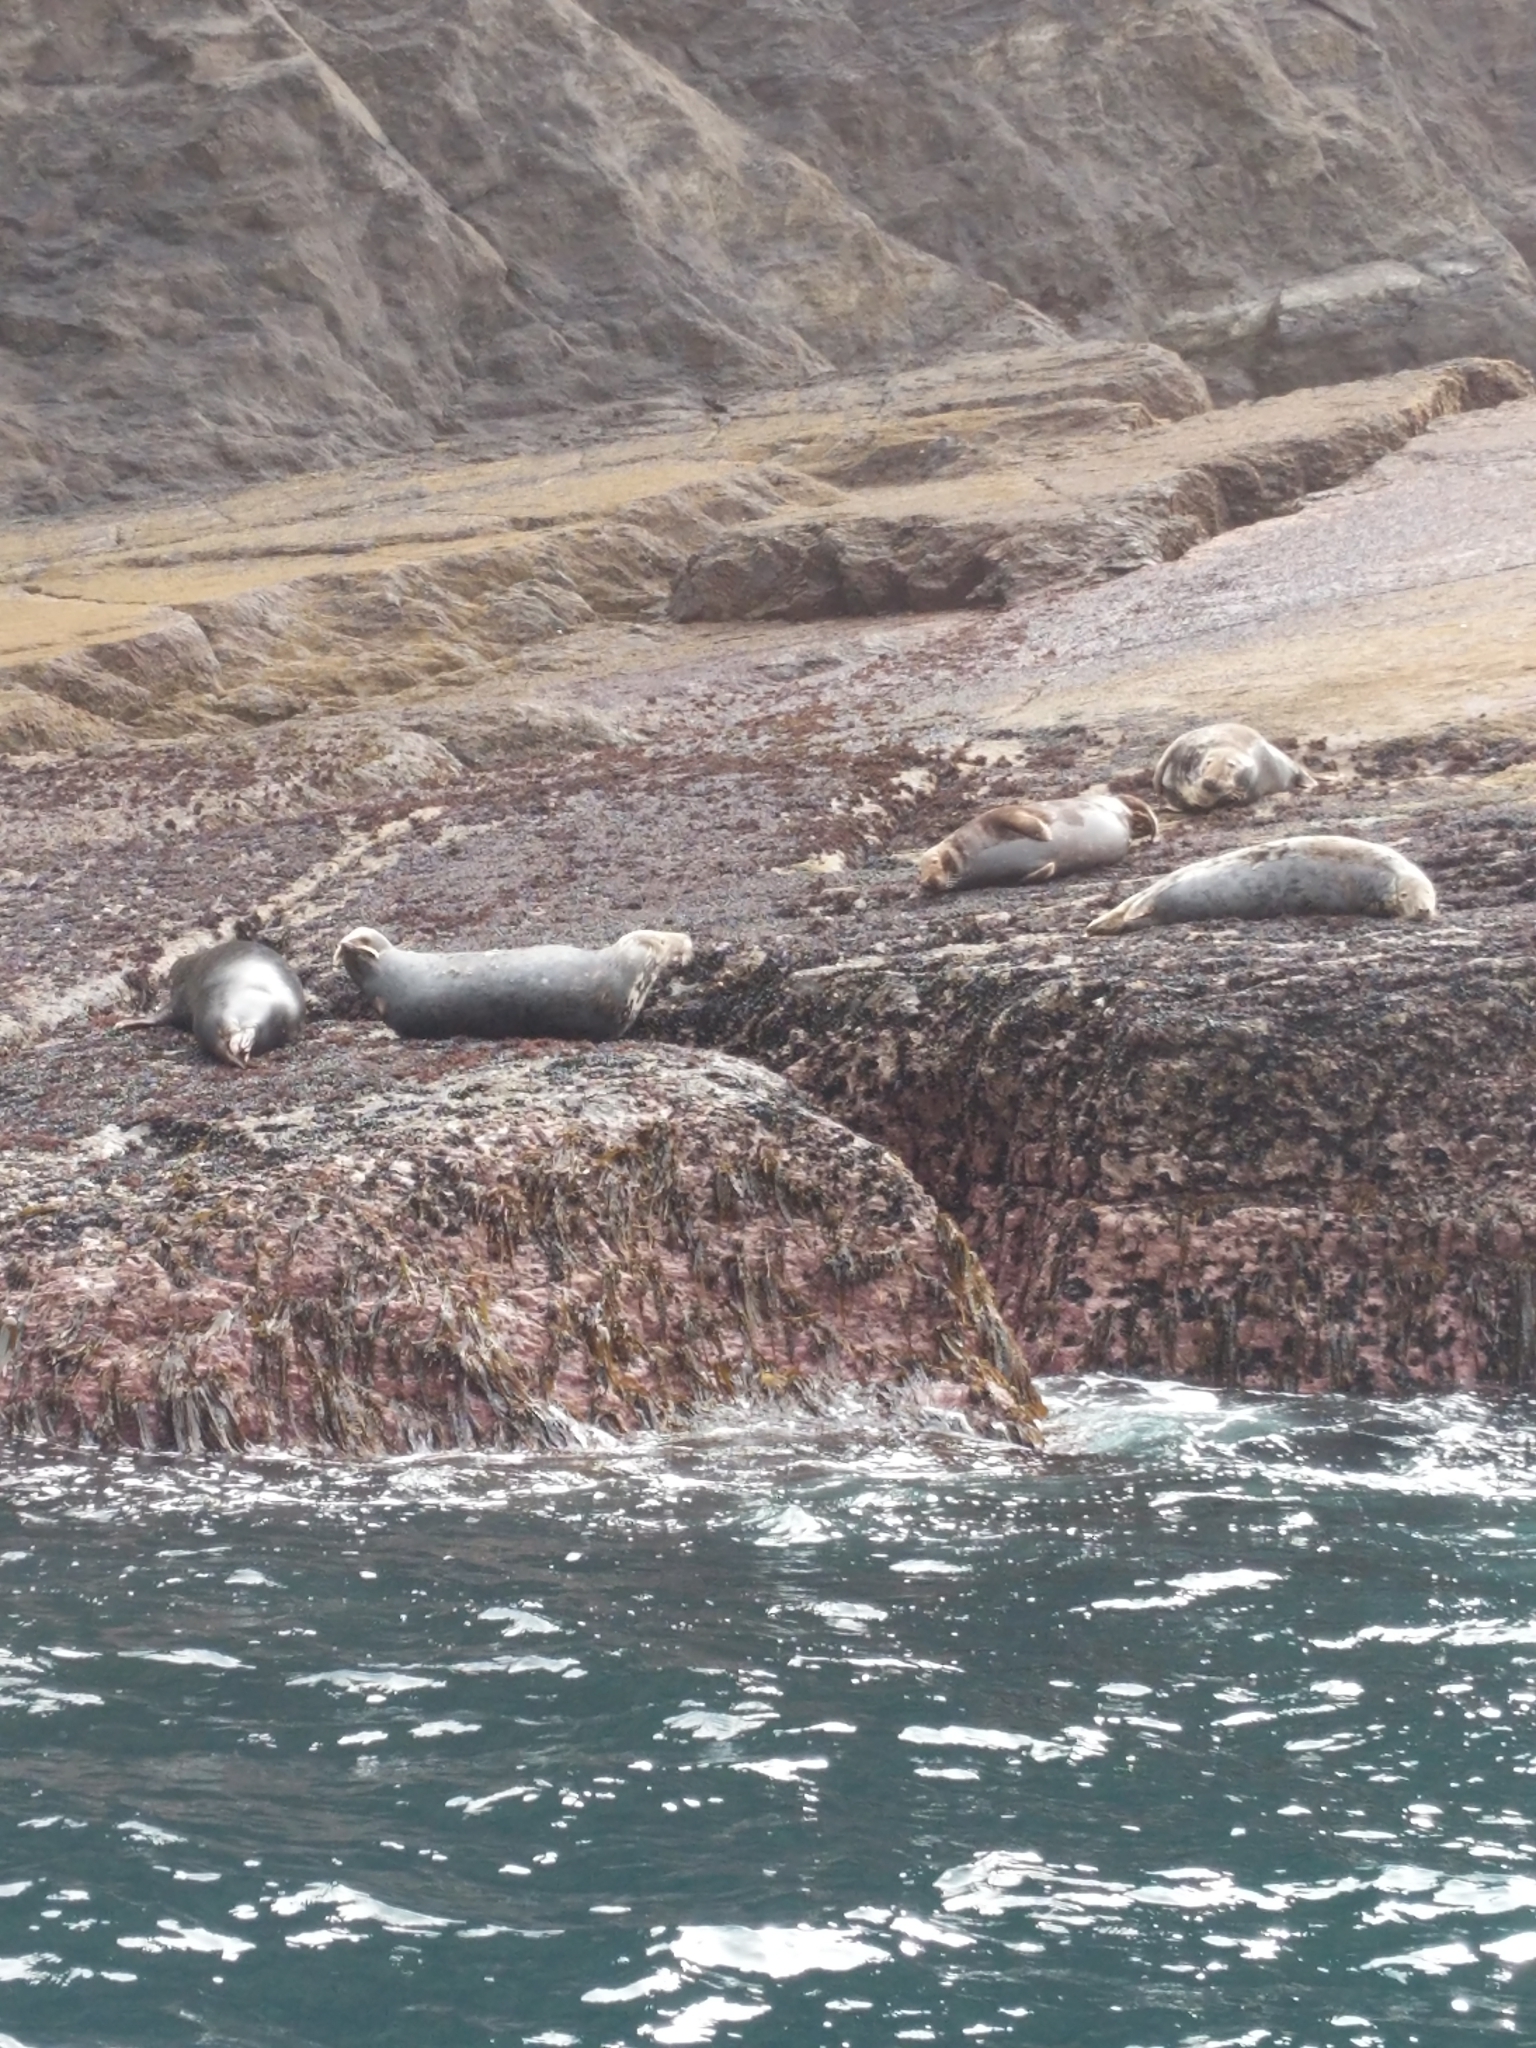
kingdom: Animalia
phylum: Chordata
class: Mammalia
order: Carnivora
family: Phocidae
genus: Halichoerus
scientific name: Halichoerus grypus
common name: Grey seal
